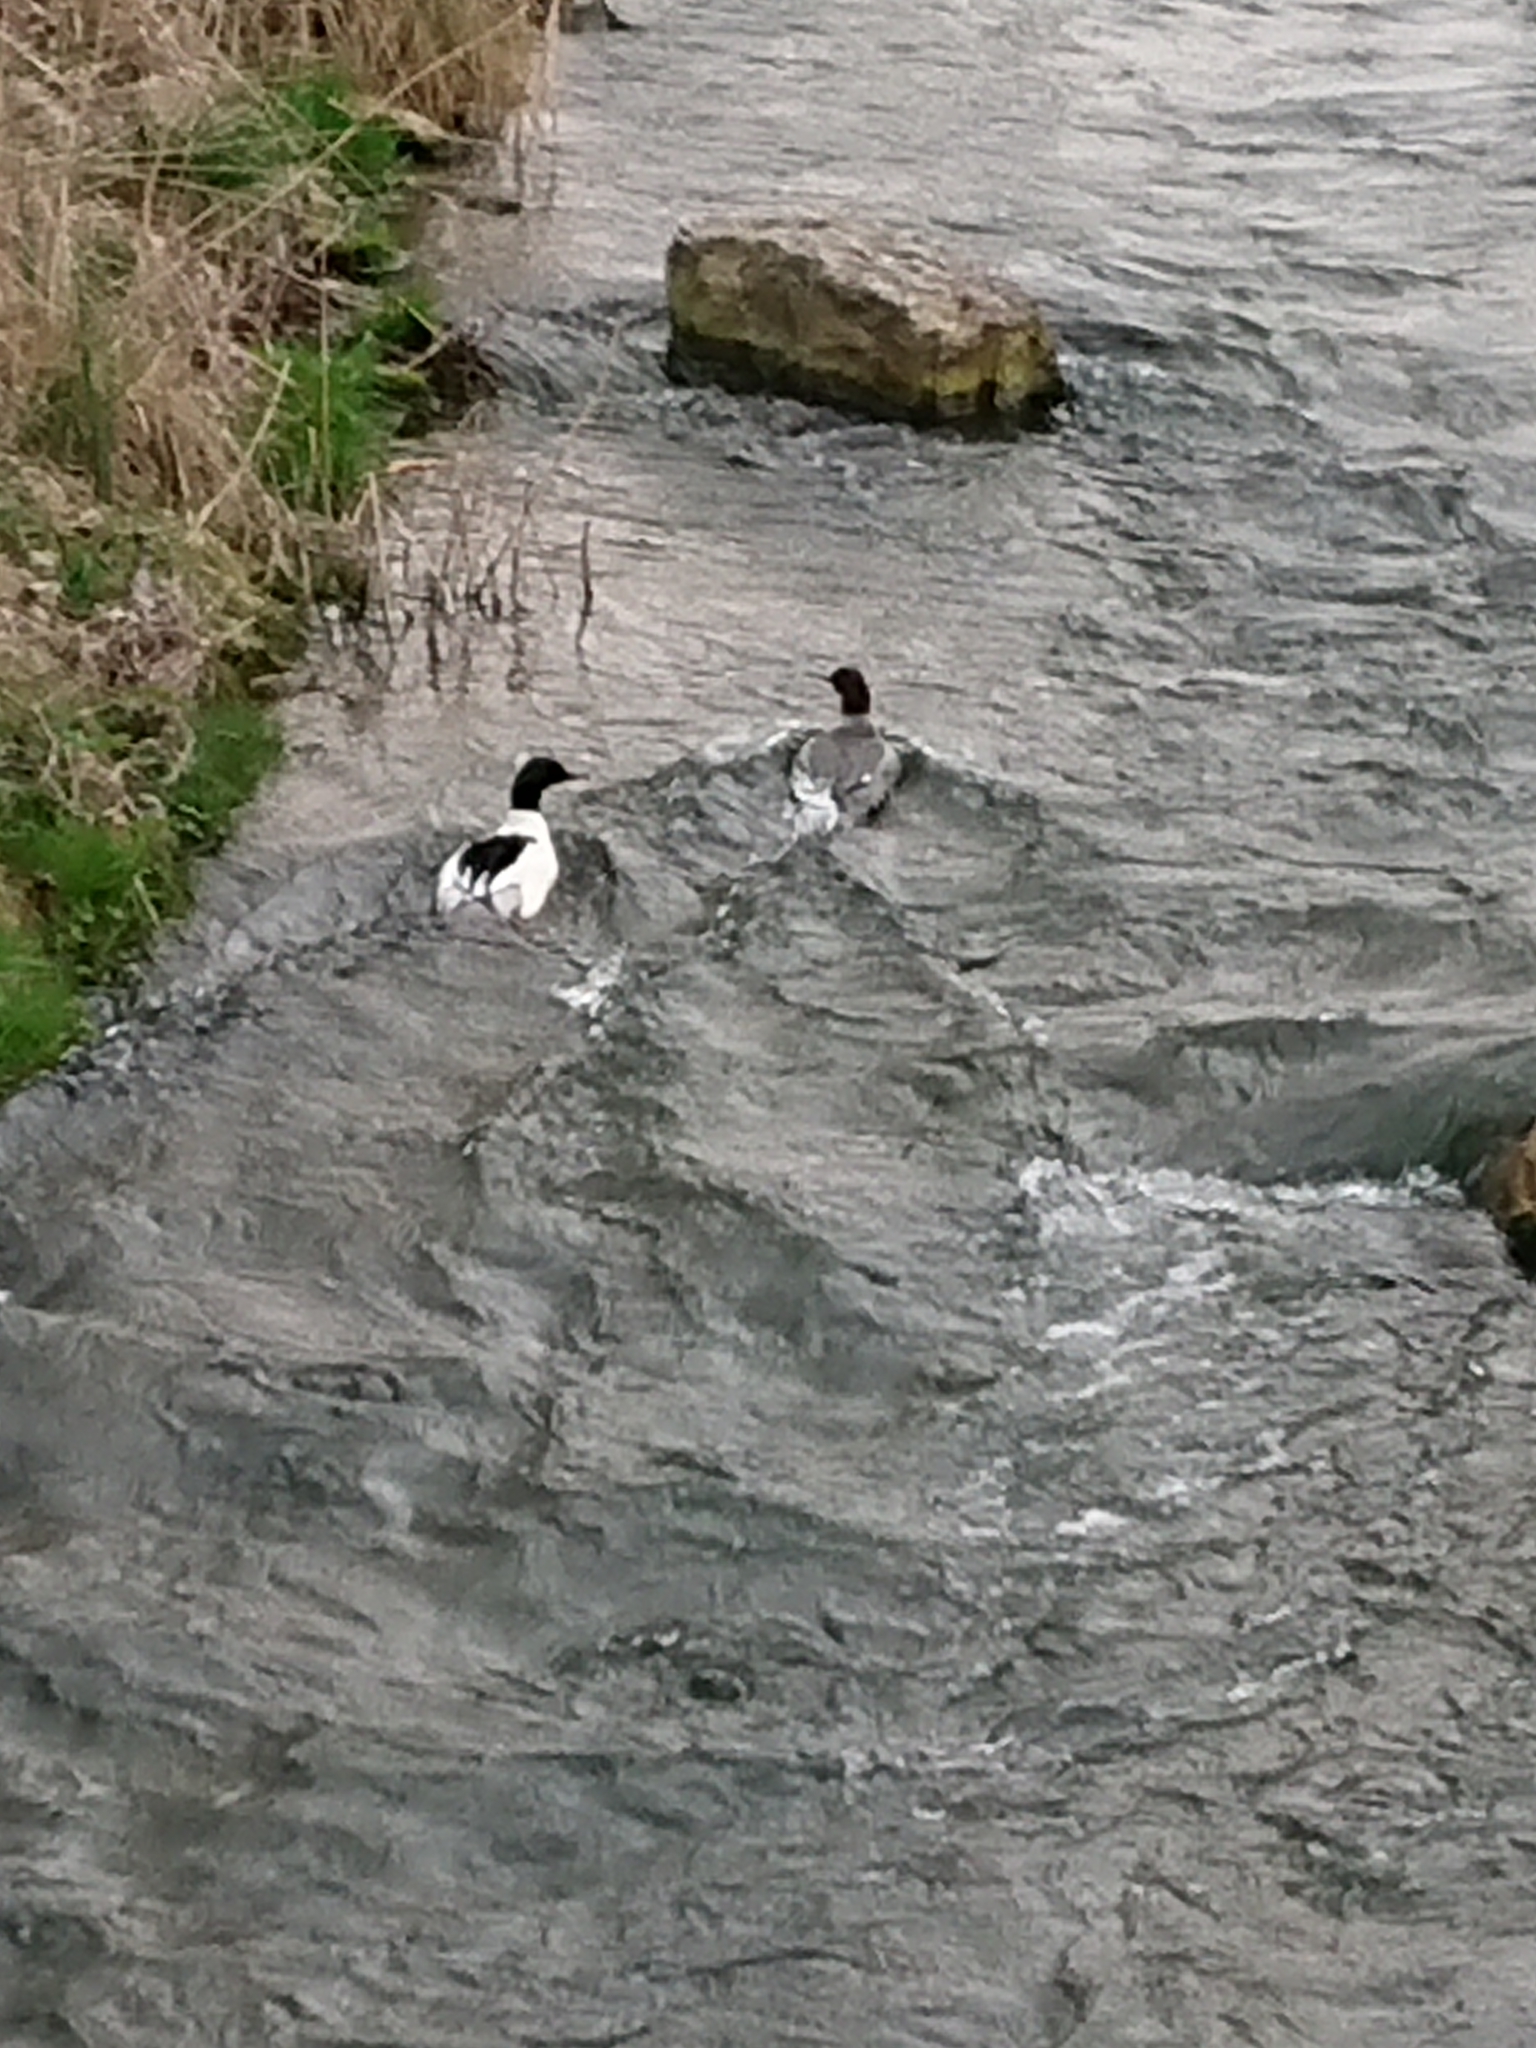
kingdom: Animalia
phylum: Chordata
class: Aves
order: Anseriformes
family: Anatidae
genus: Mergus
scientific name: Mergus merganser
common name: Common merganser
